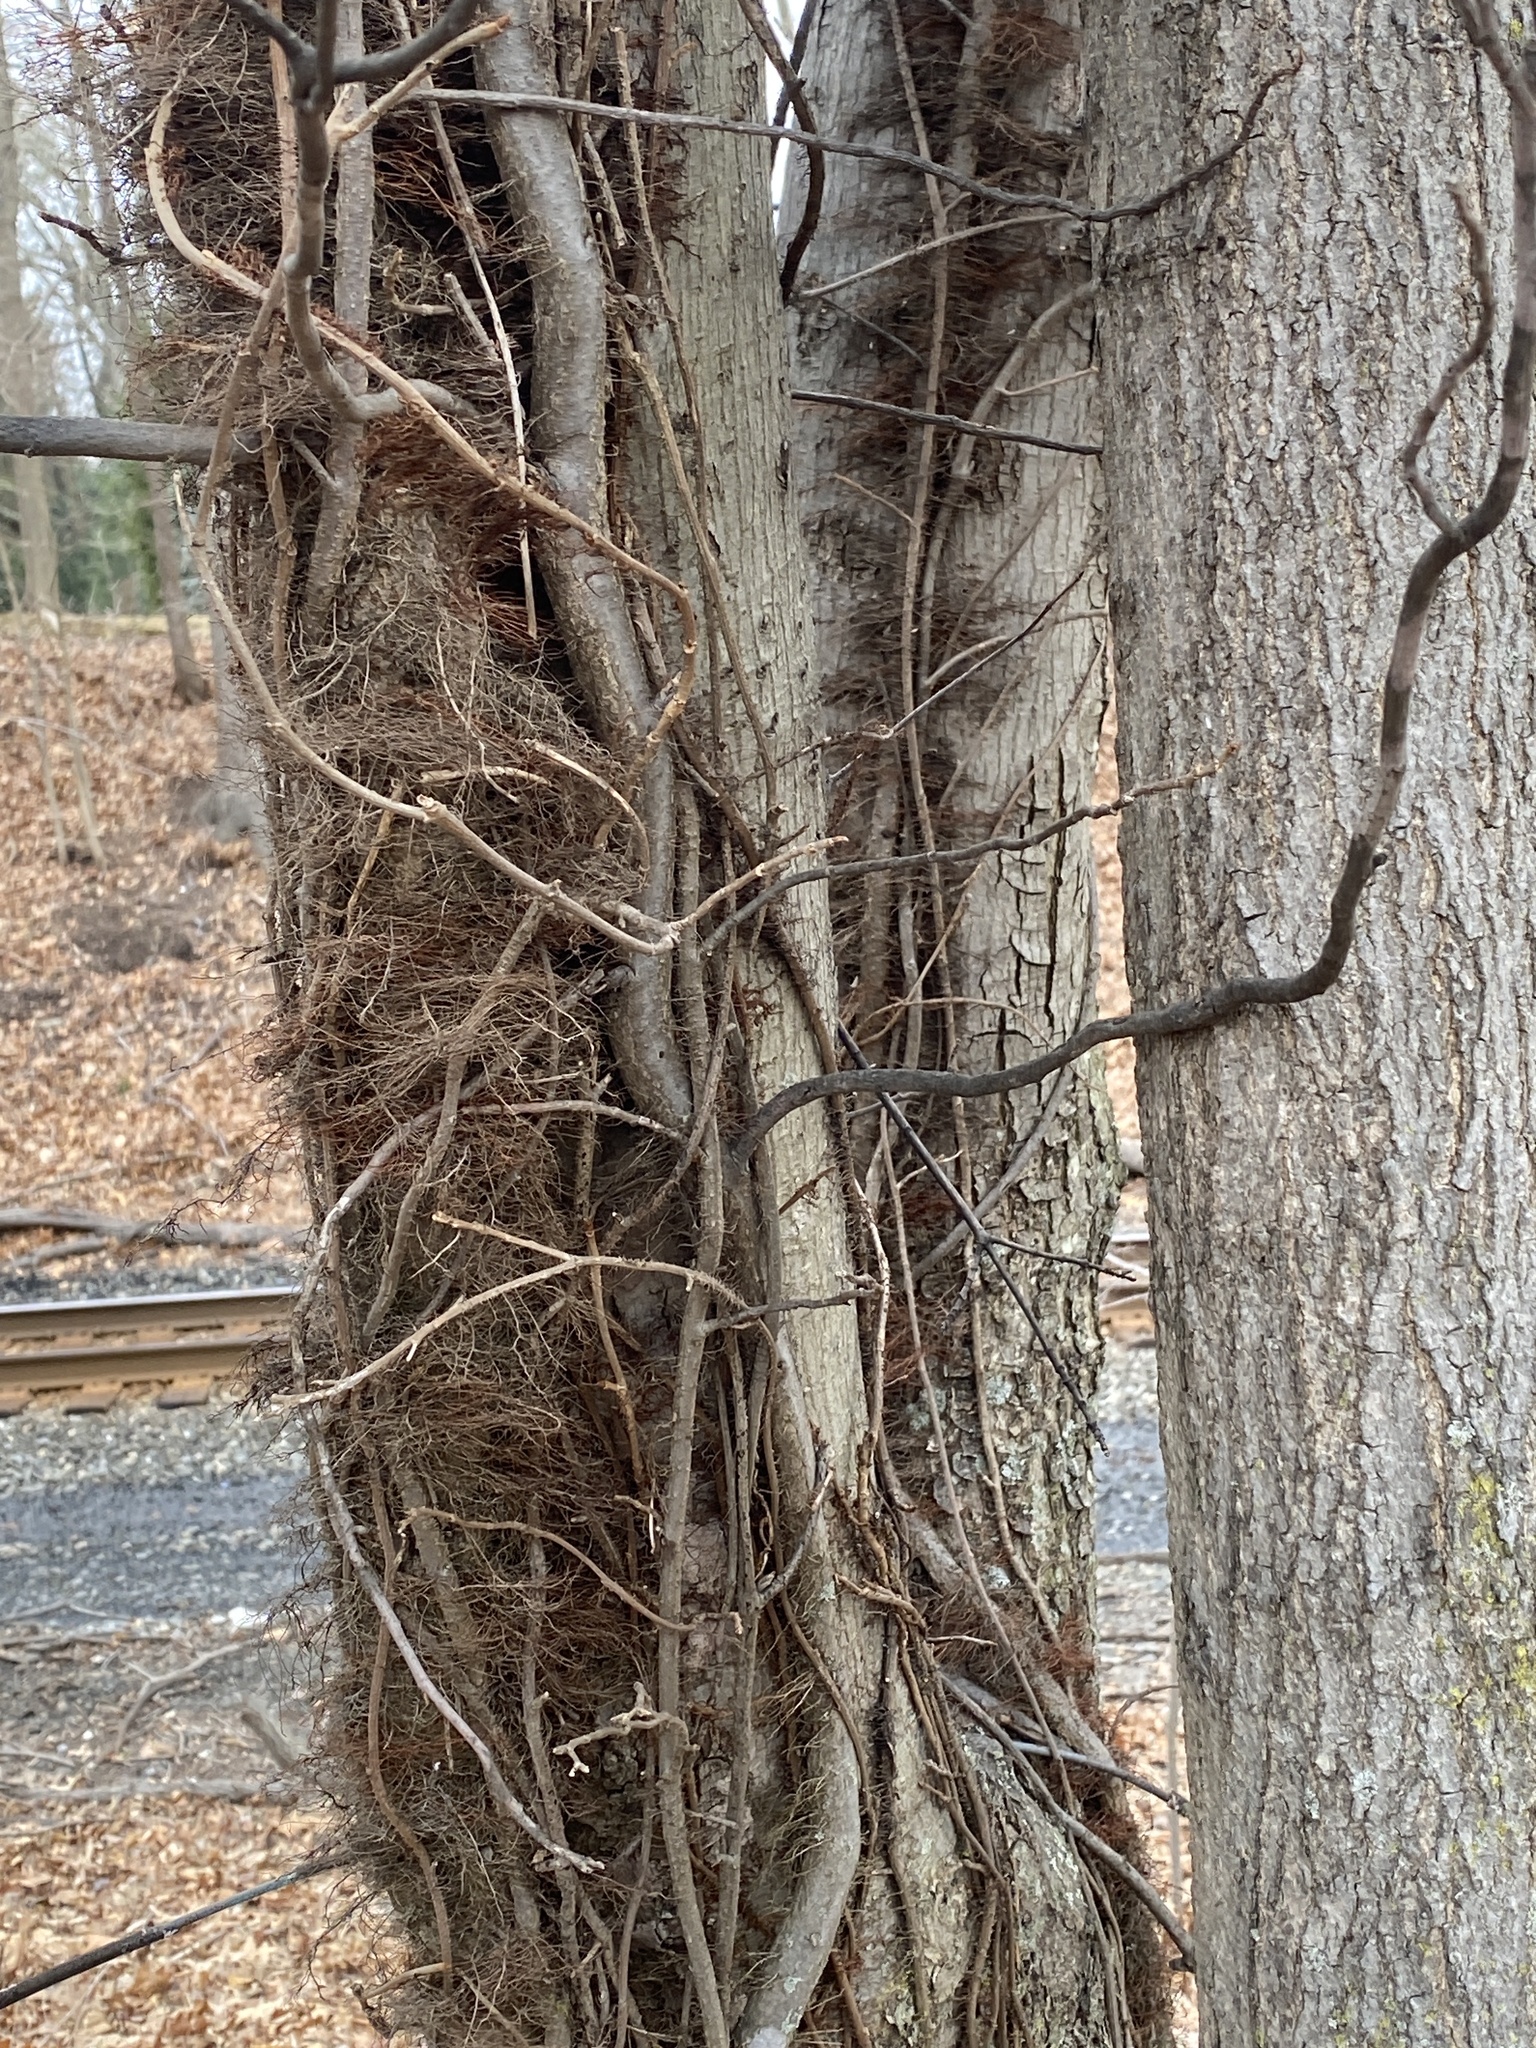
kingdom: Plantae
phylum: Tracheophyta
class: Magnoliopsida
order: Sapindales
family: Anacardiaceae
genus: Toxicodendron
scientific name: Toxicodendron radicans
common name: Poison ivy
